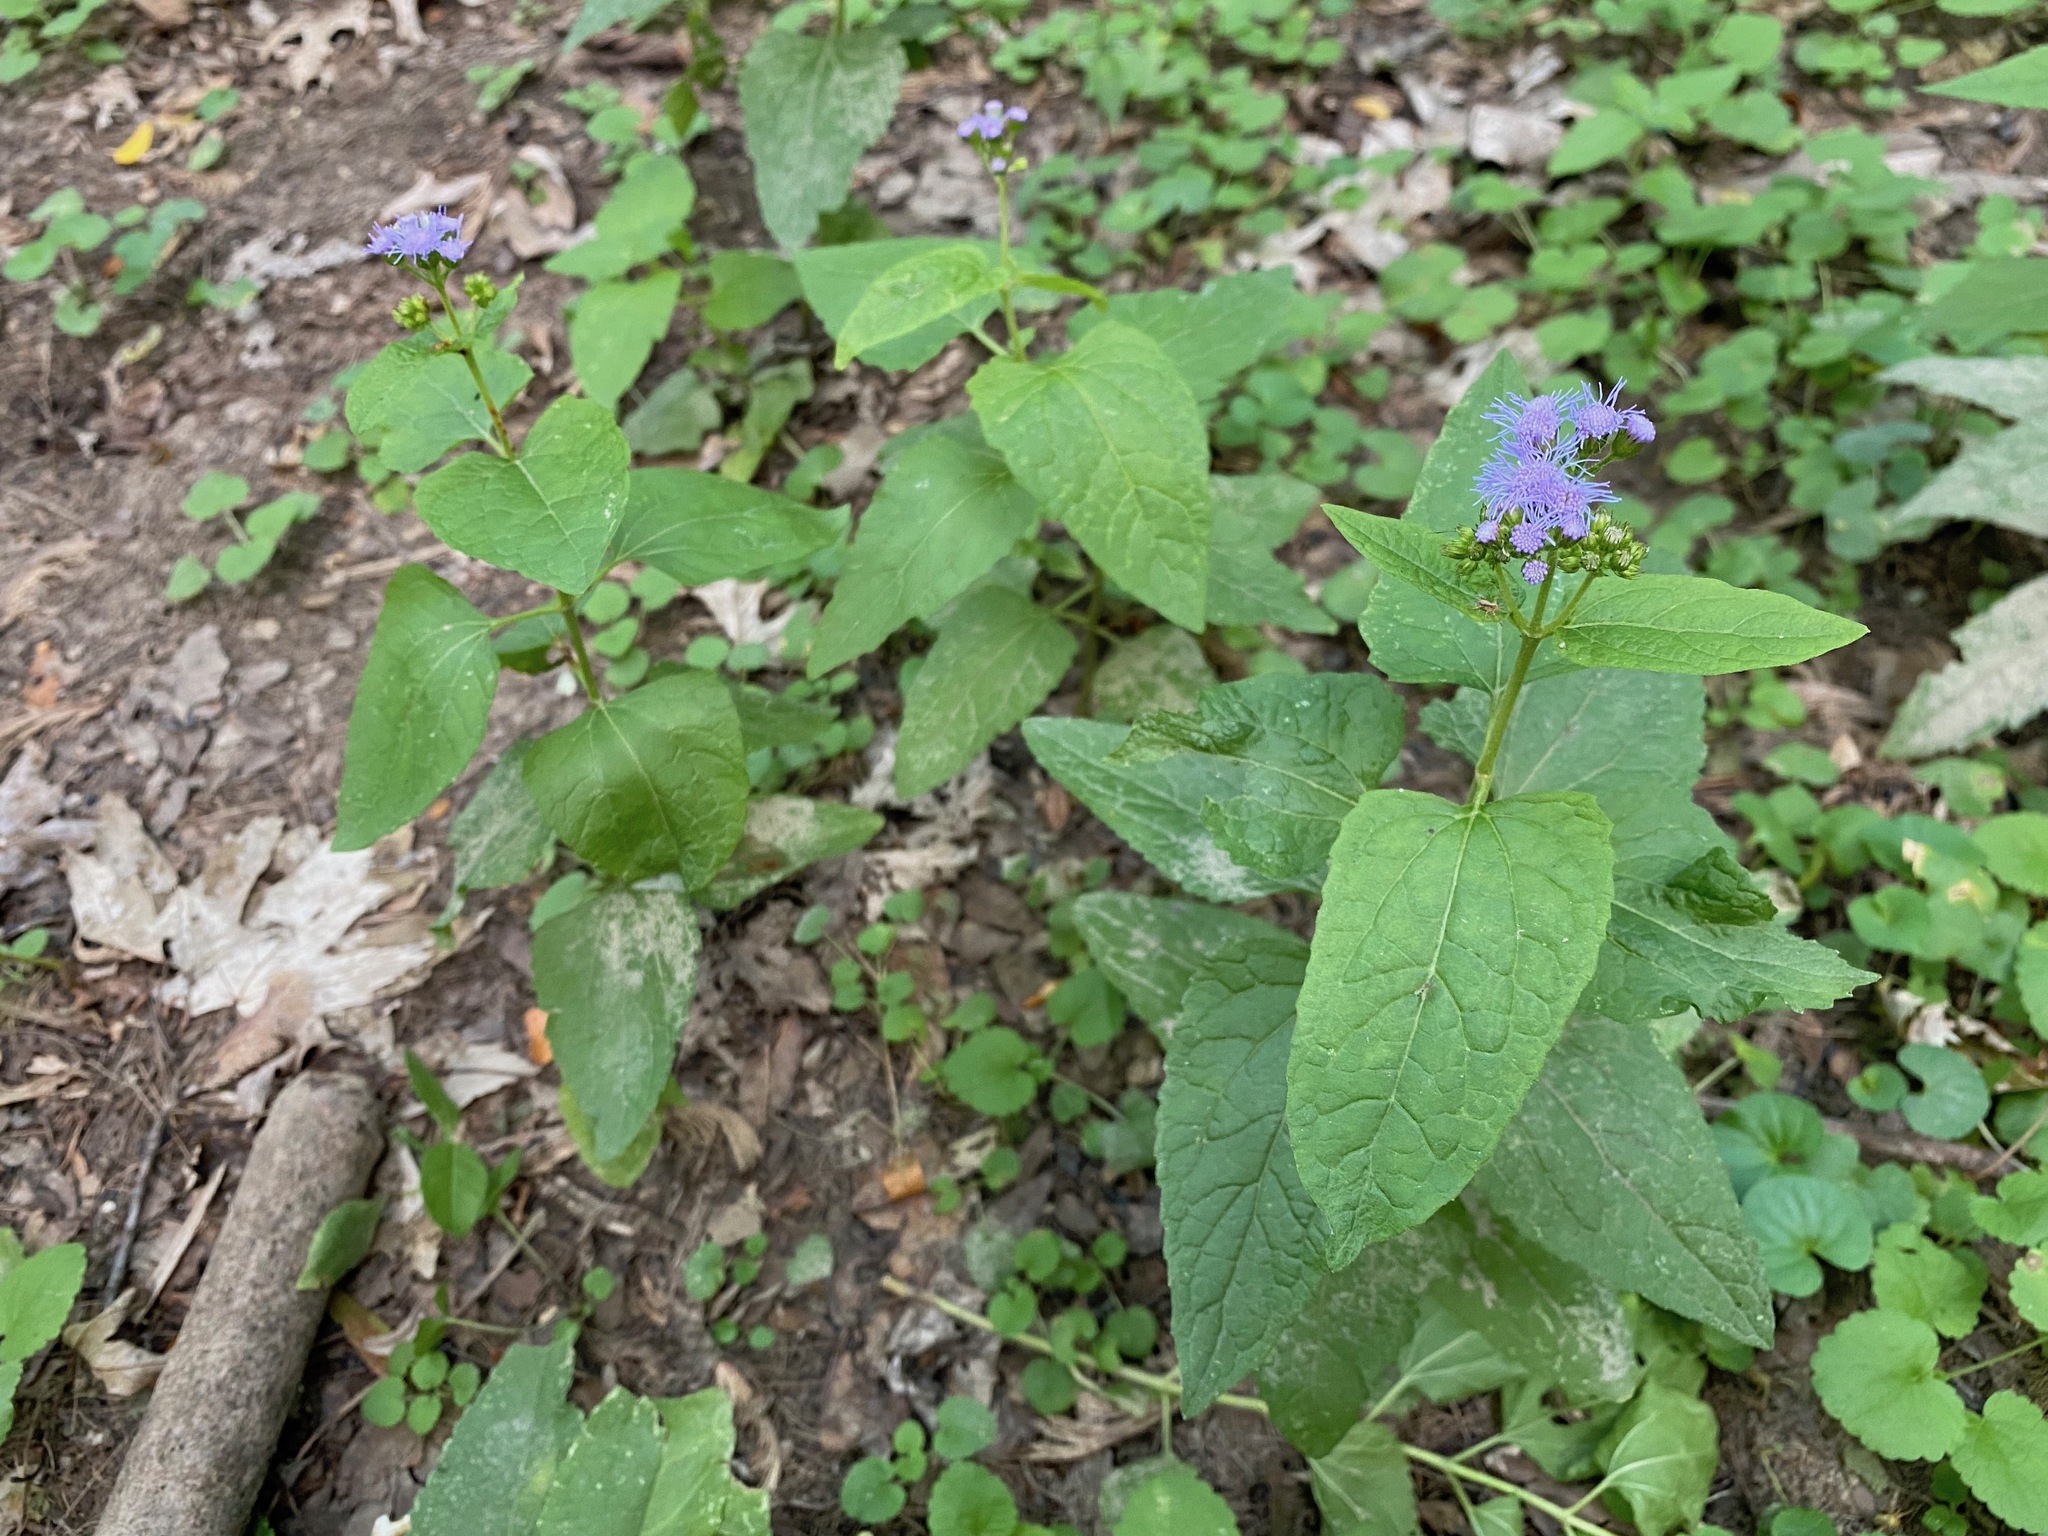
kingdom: Plantae
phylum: Tracheophyta
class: Magnoliopsida
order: Asterales
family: Asteraceae
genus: Conoclinium
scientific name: Conoclinium coelestinum
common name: Blue mistflower
